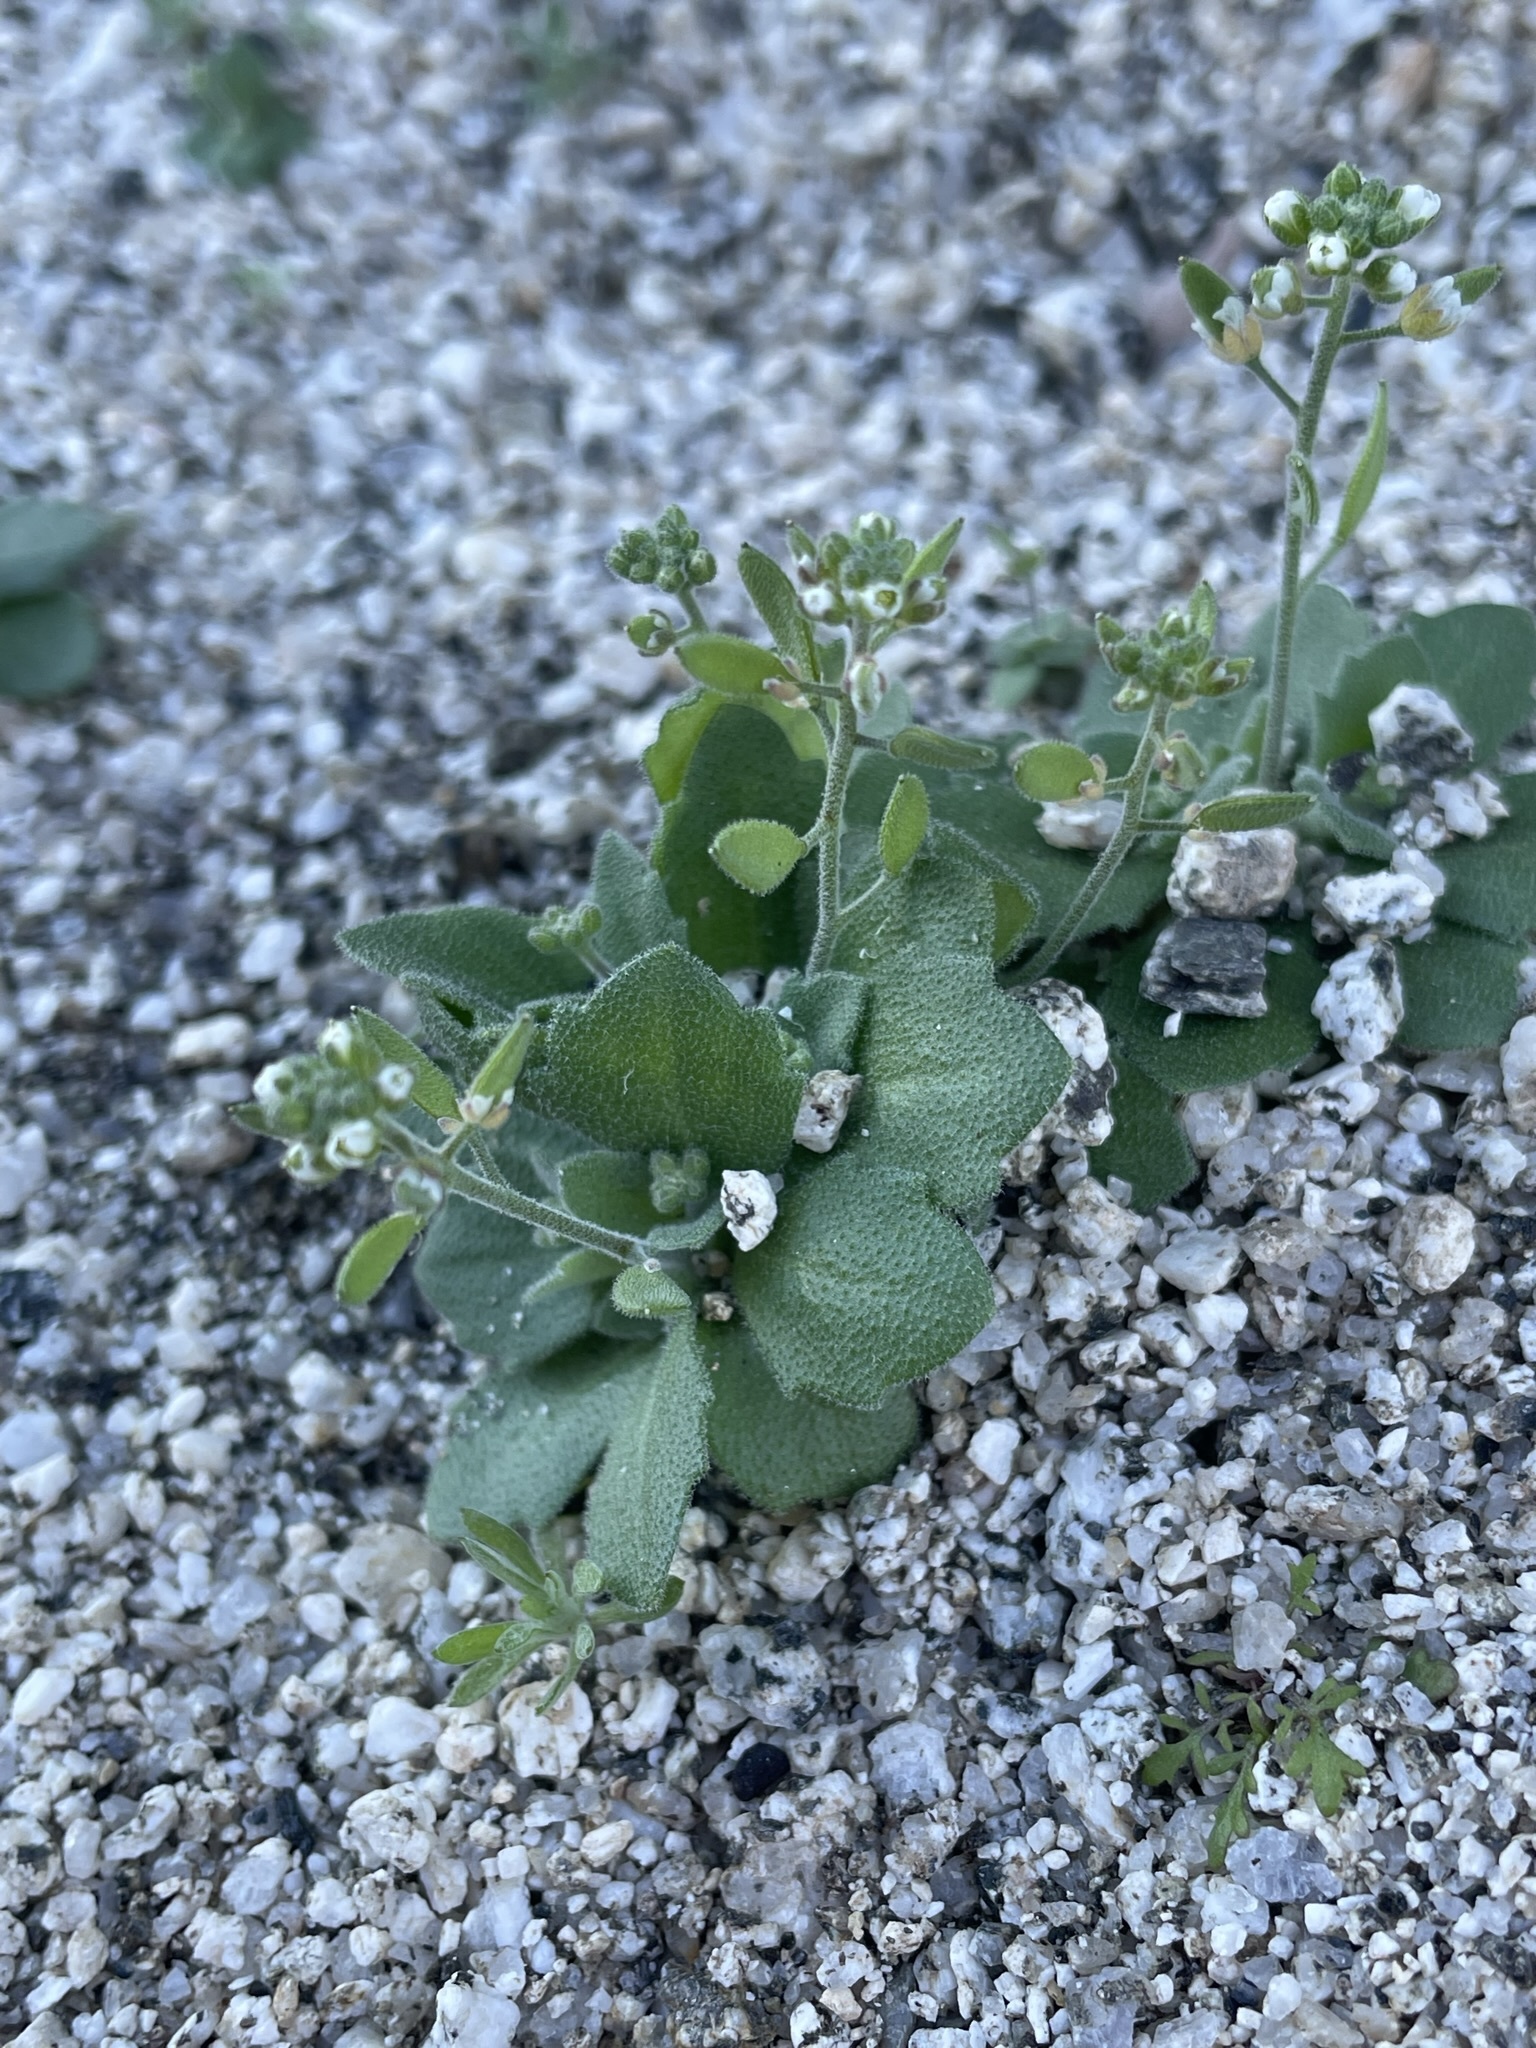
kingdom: Plantae
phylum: Tracheophyta
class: Magnoliopsida
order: Brassicales
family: Brassicaceae
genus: Tomostima
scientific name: Tomostima cuneifolia
